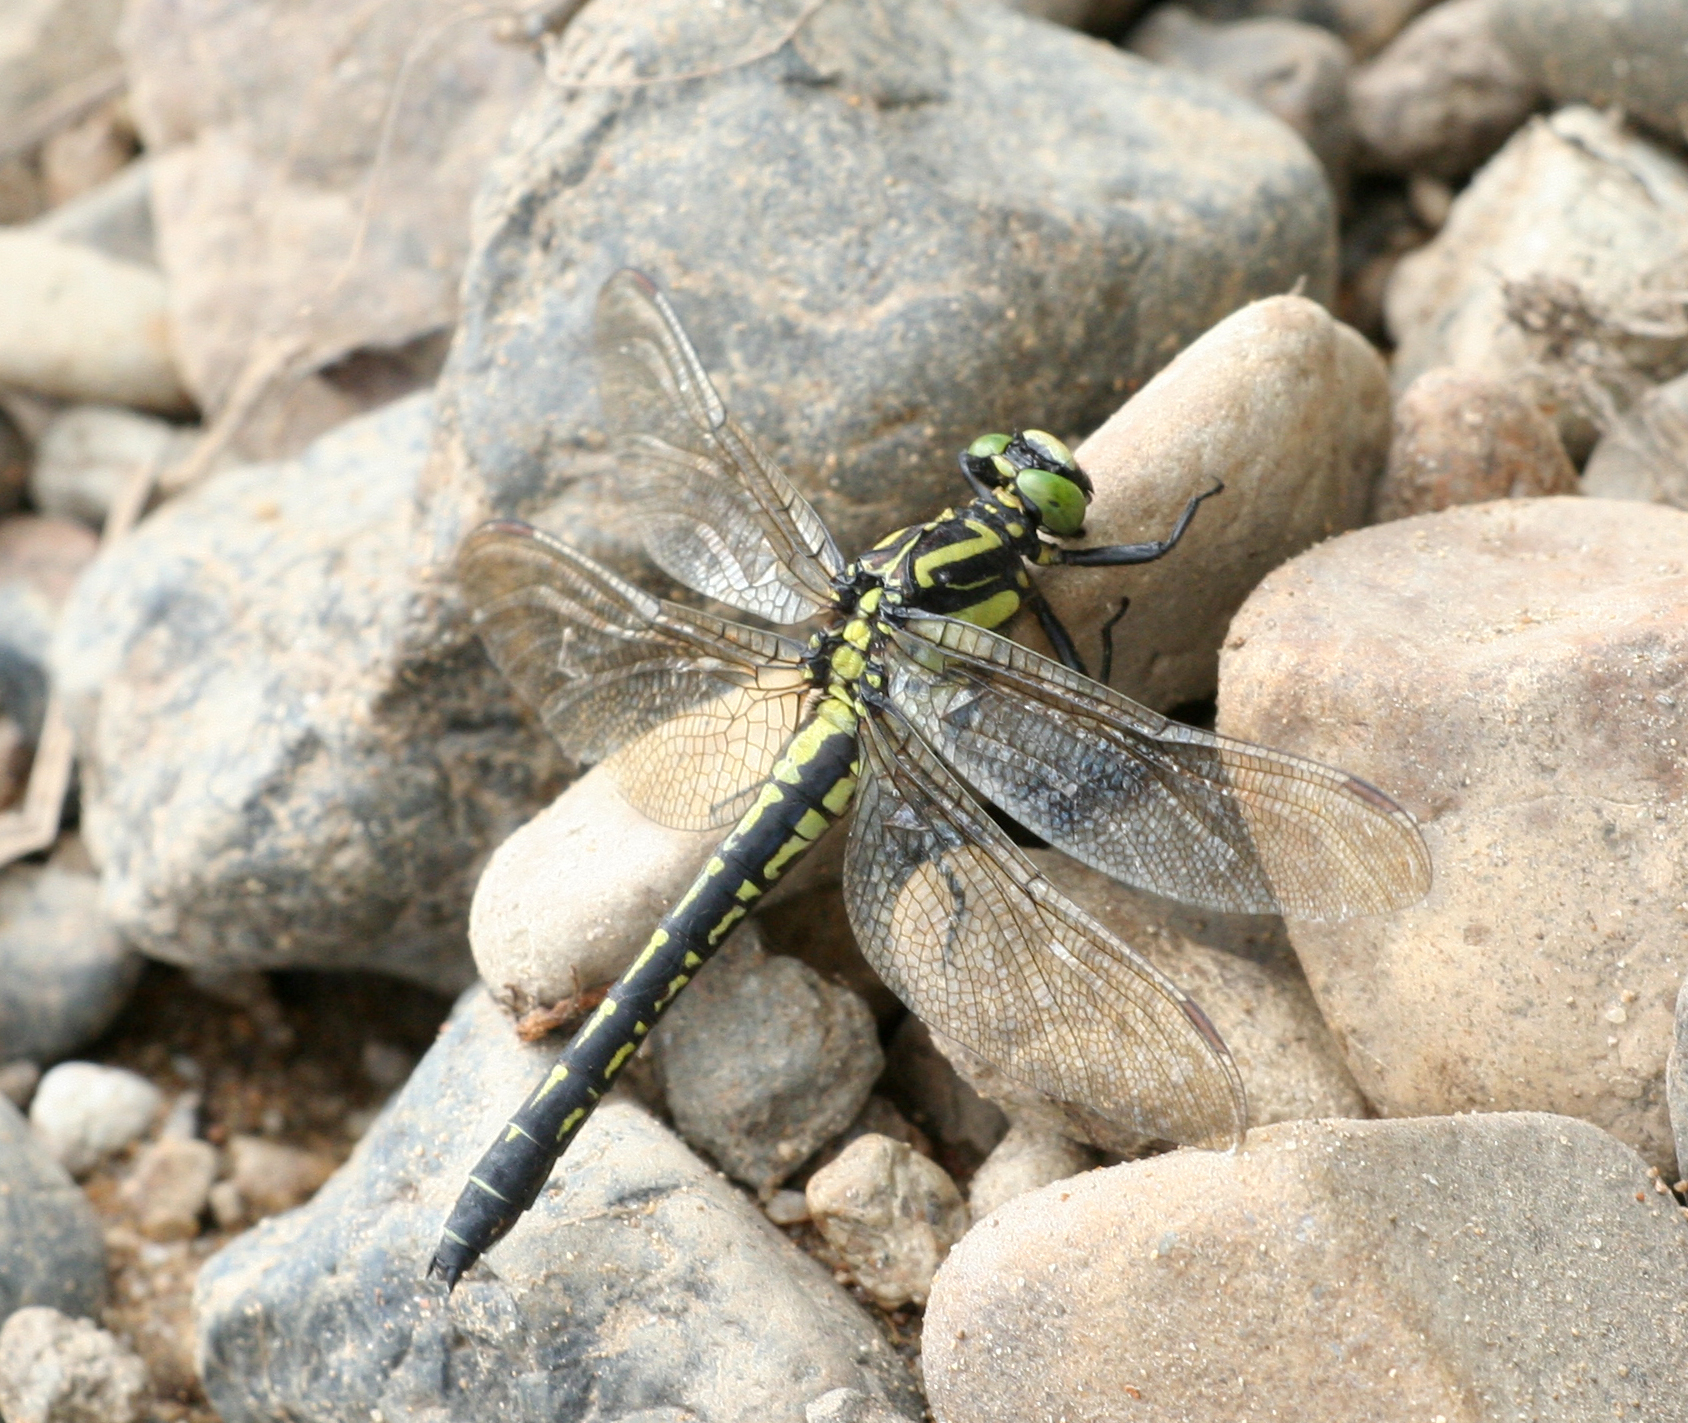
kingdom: Animalia
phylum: Arthropoda
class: Insecta
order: Odonata
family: Gomphidae
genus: Shaogomphus
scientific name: Shaogomphus postocularis
